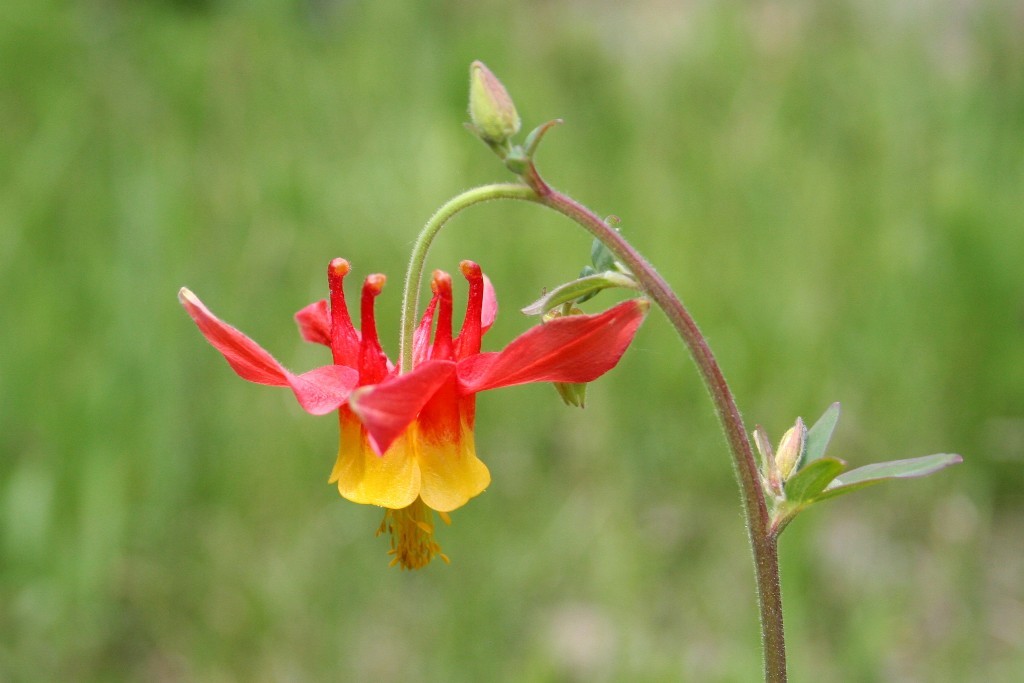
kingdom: Plantae
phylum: Tracheophyta
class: Magnoliopsida
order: Ranunculales
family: Ranunculaceae
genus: Aquilegia
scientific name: Aquilegia formosa
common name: Sitka columbine
